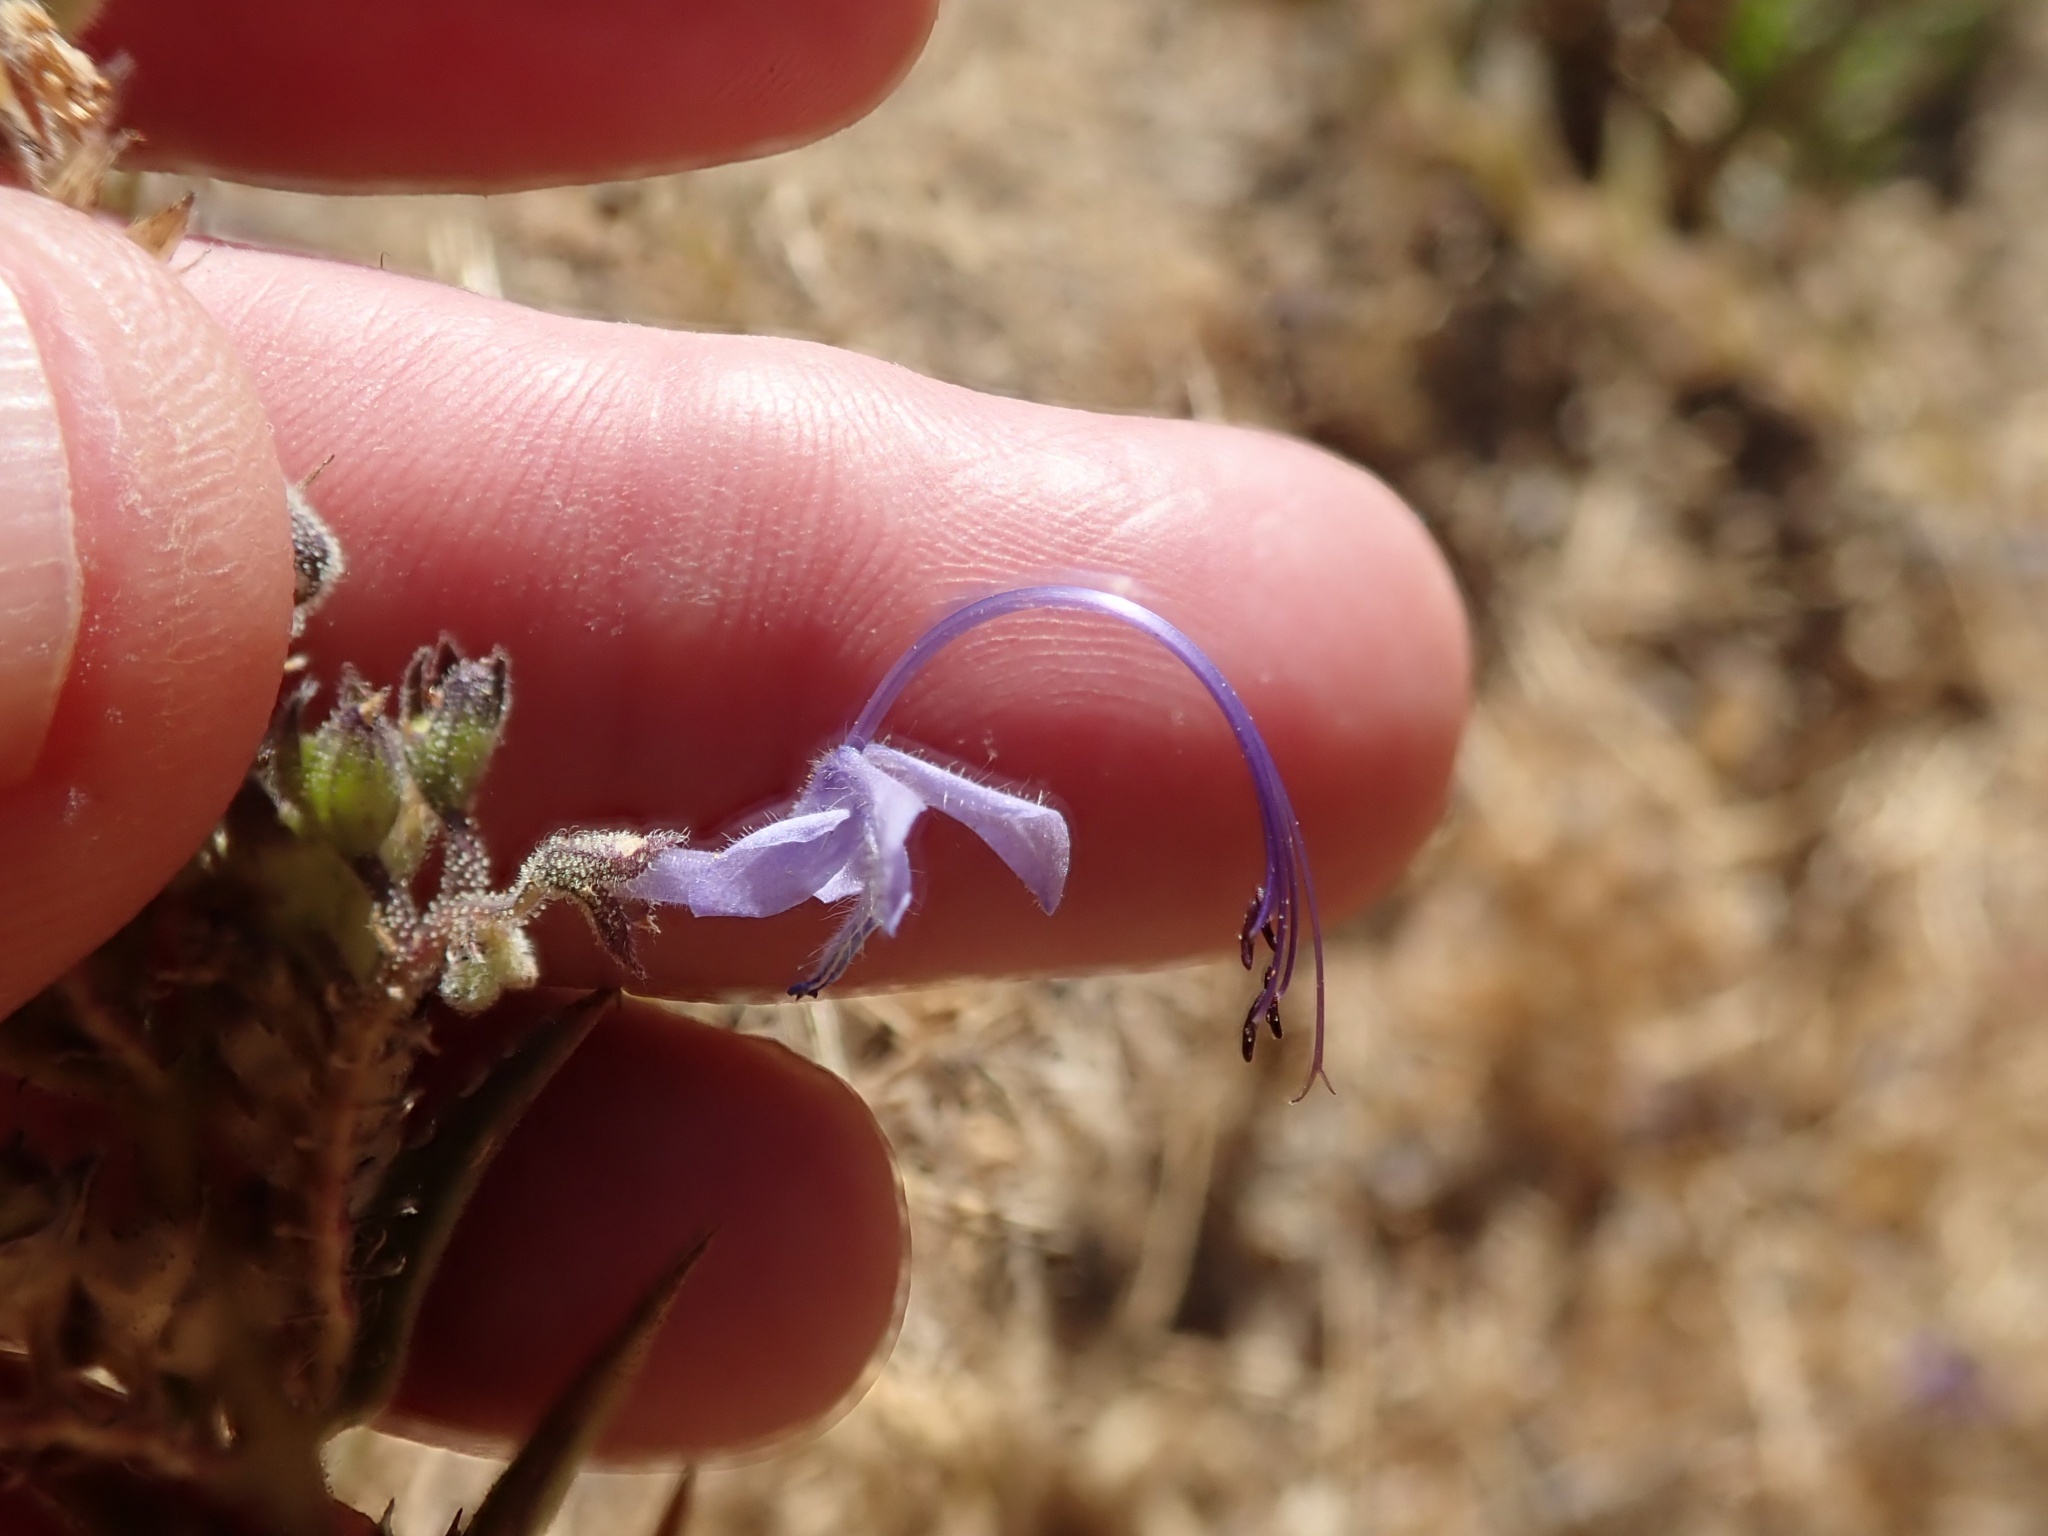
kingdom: Plantae
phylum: Tracheophyta
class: Magnoliopsida
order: Lamiales
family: Lamiaceae
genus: Trichostema
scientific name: Trichostema lanceolatum
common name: Vinegar-weed
